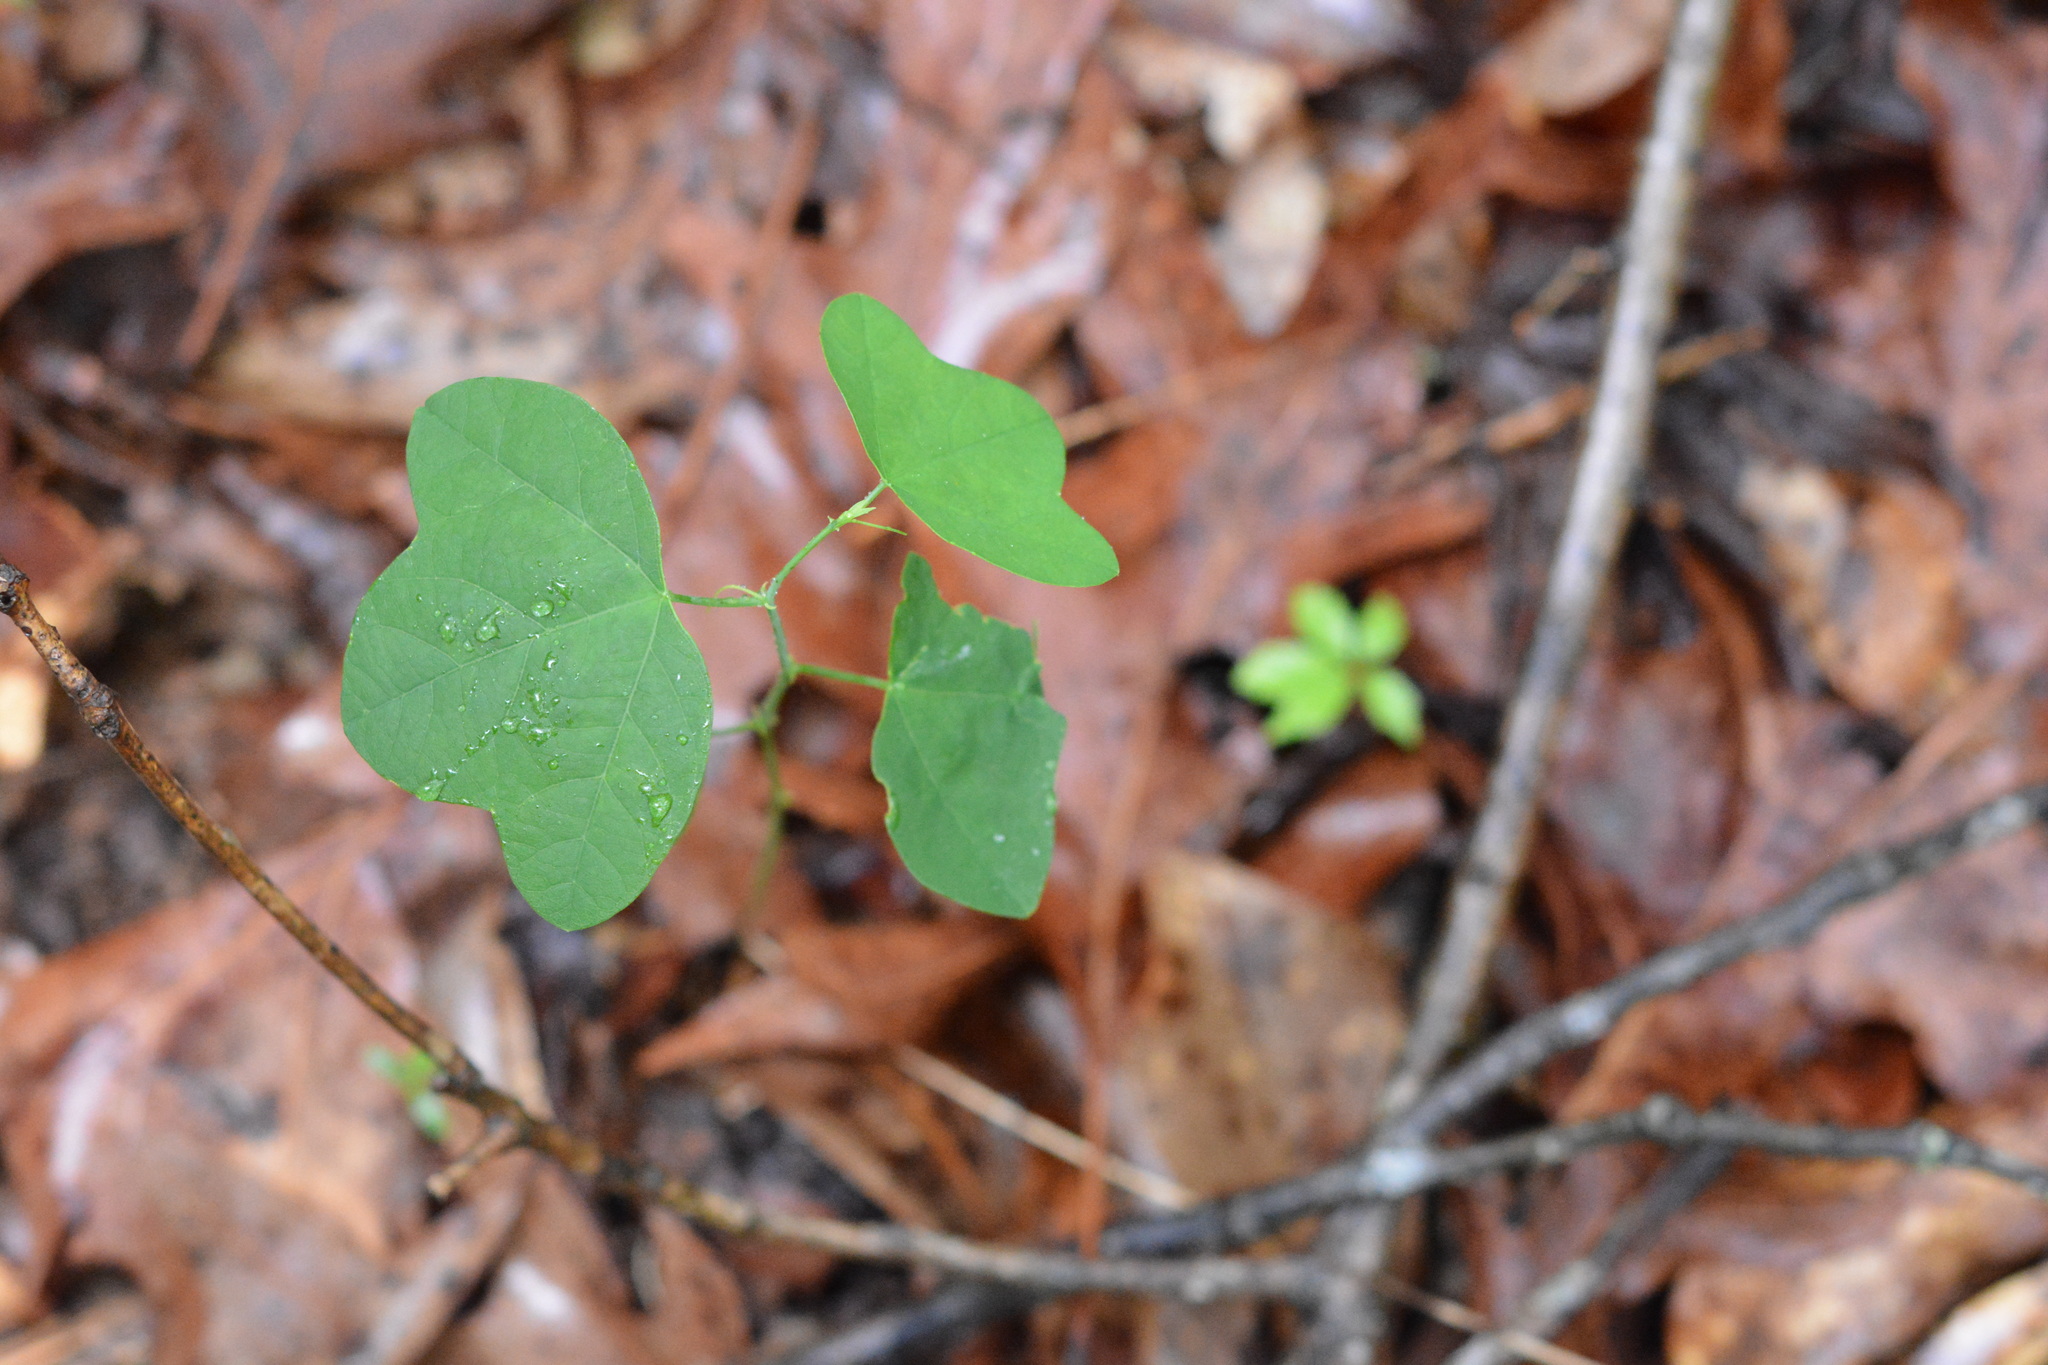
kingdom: Plantae
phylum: Tracheophyta
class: Magnoliopsida
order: Malpighiales
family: Passifloraceae
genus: Passiflora
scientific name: Passiflora lutea
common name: Yellow passionflower
